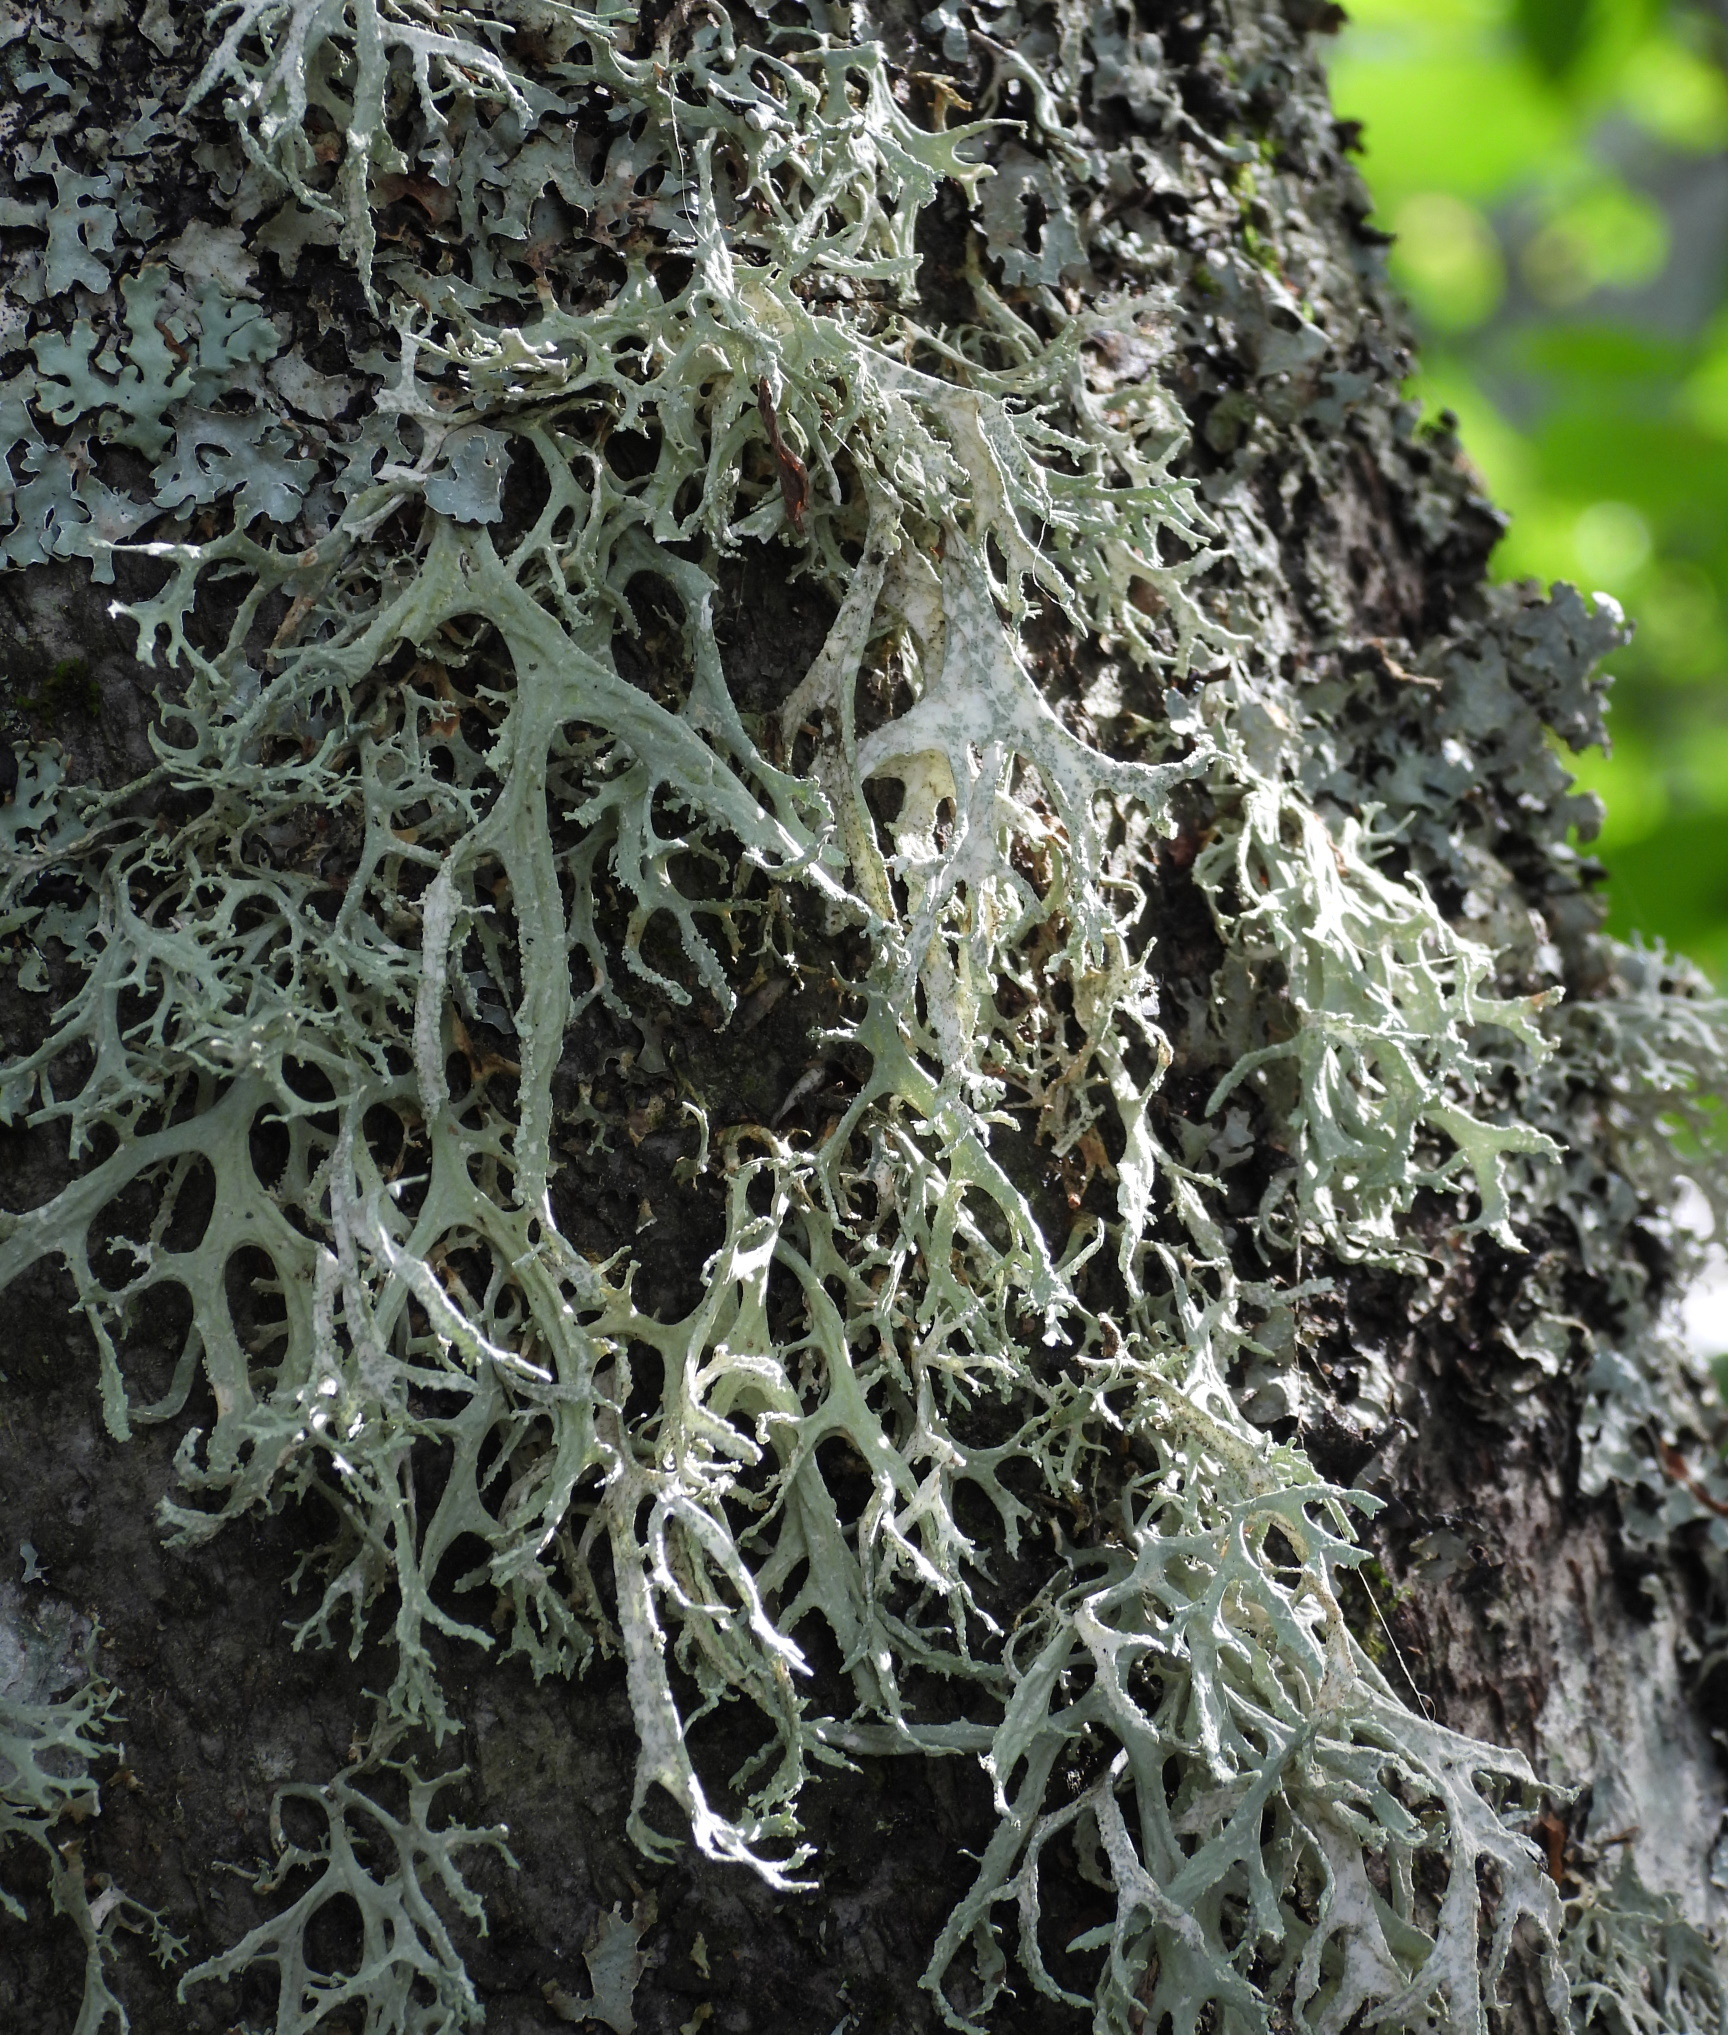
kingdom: Fungi
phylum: Ascomycota
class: Lecanoromycetes
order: Lecanorales
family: Parmeliaceae
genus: Evernia
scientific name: Evernia prunastri
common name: Oak moss
